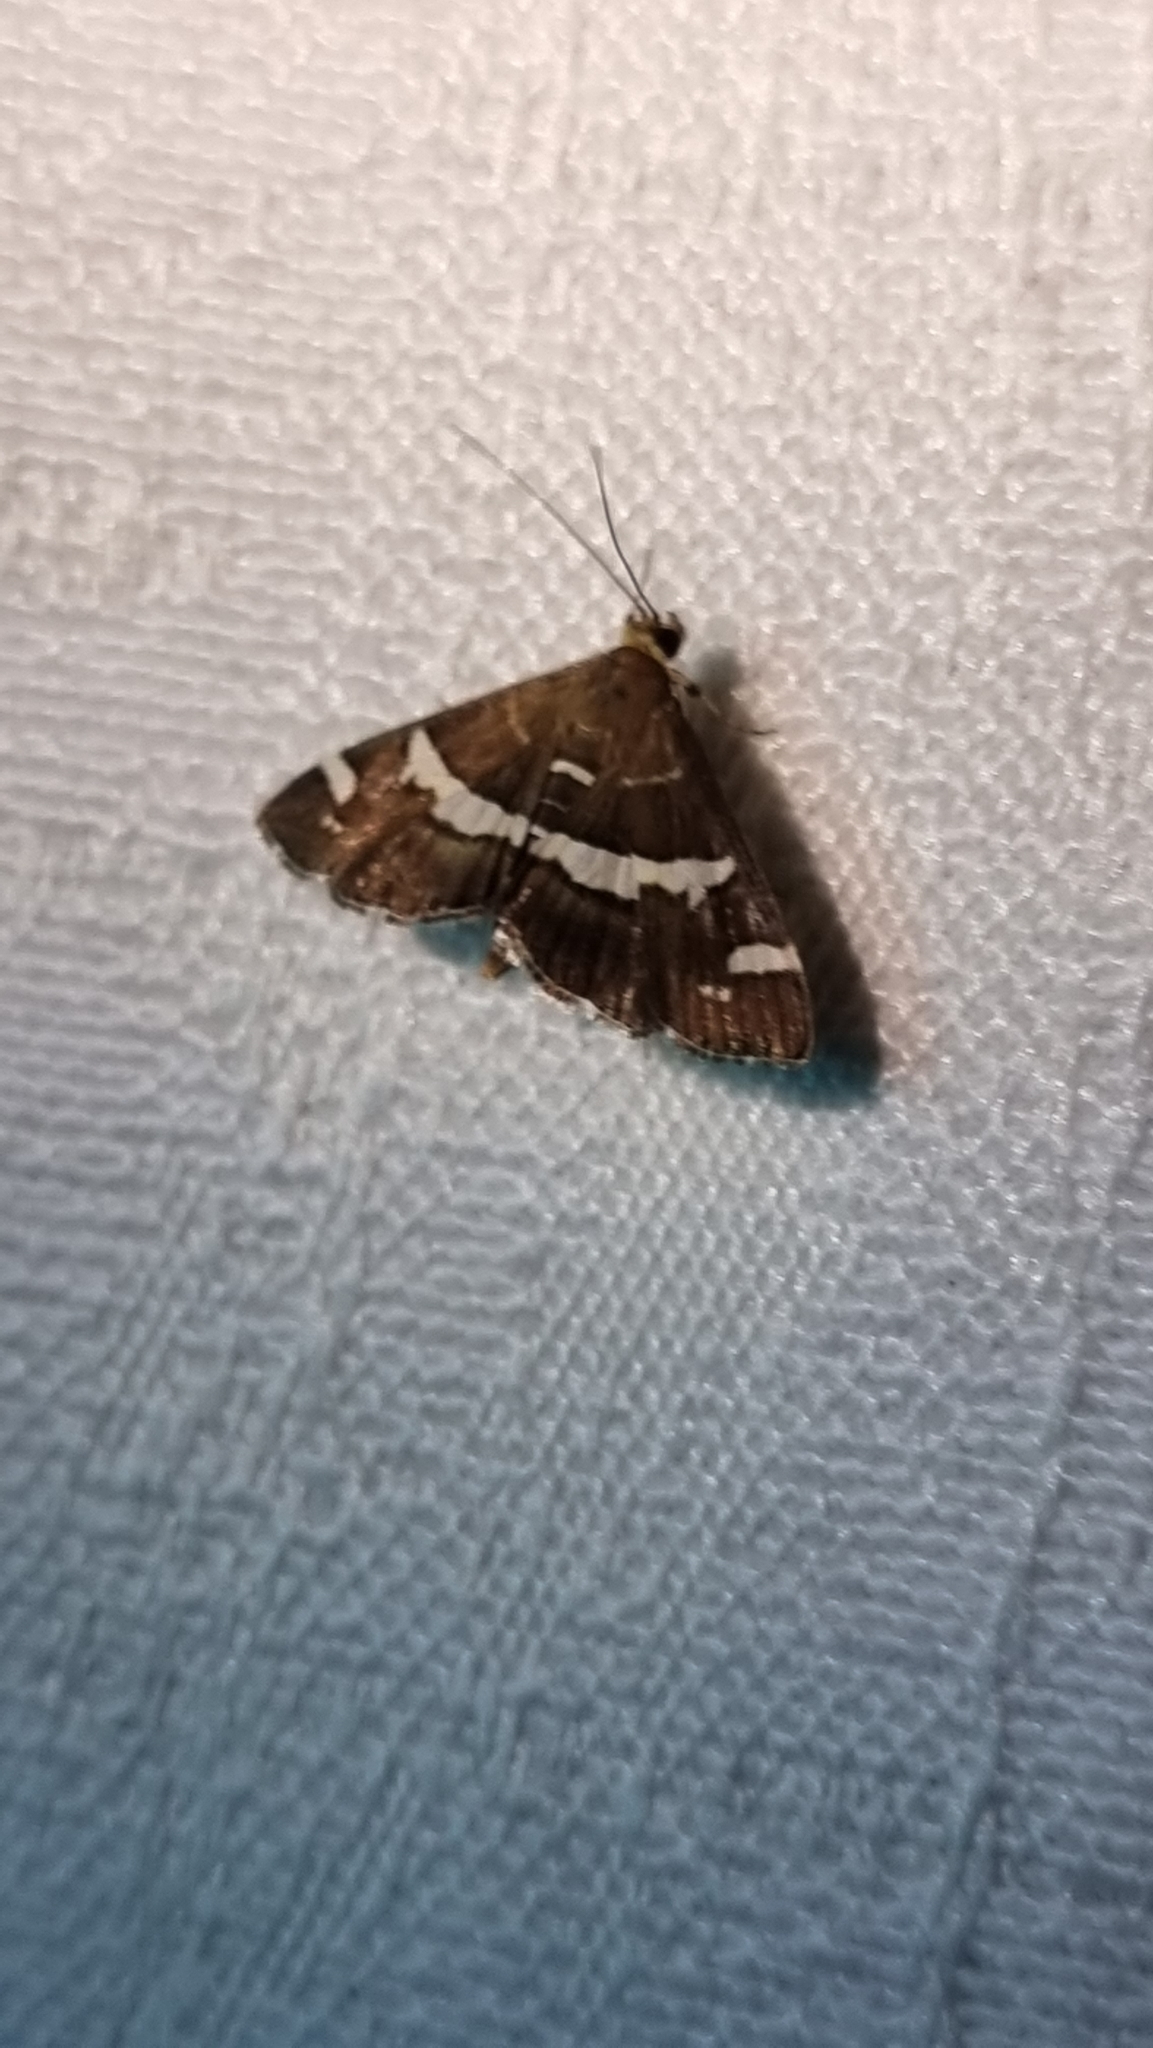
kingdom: Animalia
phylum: Arthropoda
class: Insecta
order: Lepidoptera
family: Crambidae
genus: Spoladea
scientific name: Spoladea recurvalis
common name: Beet webworm moth
